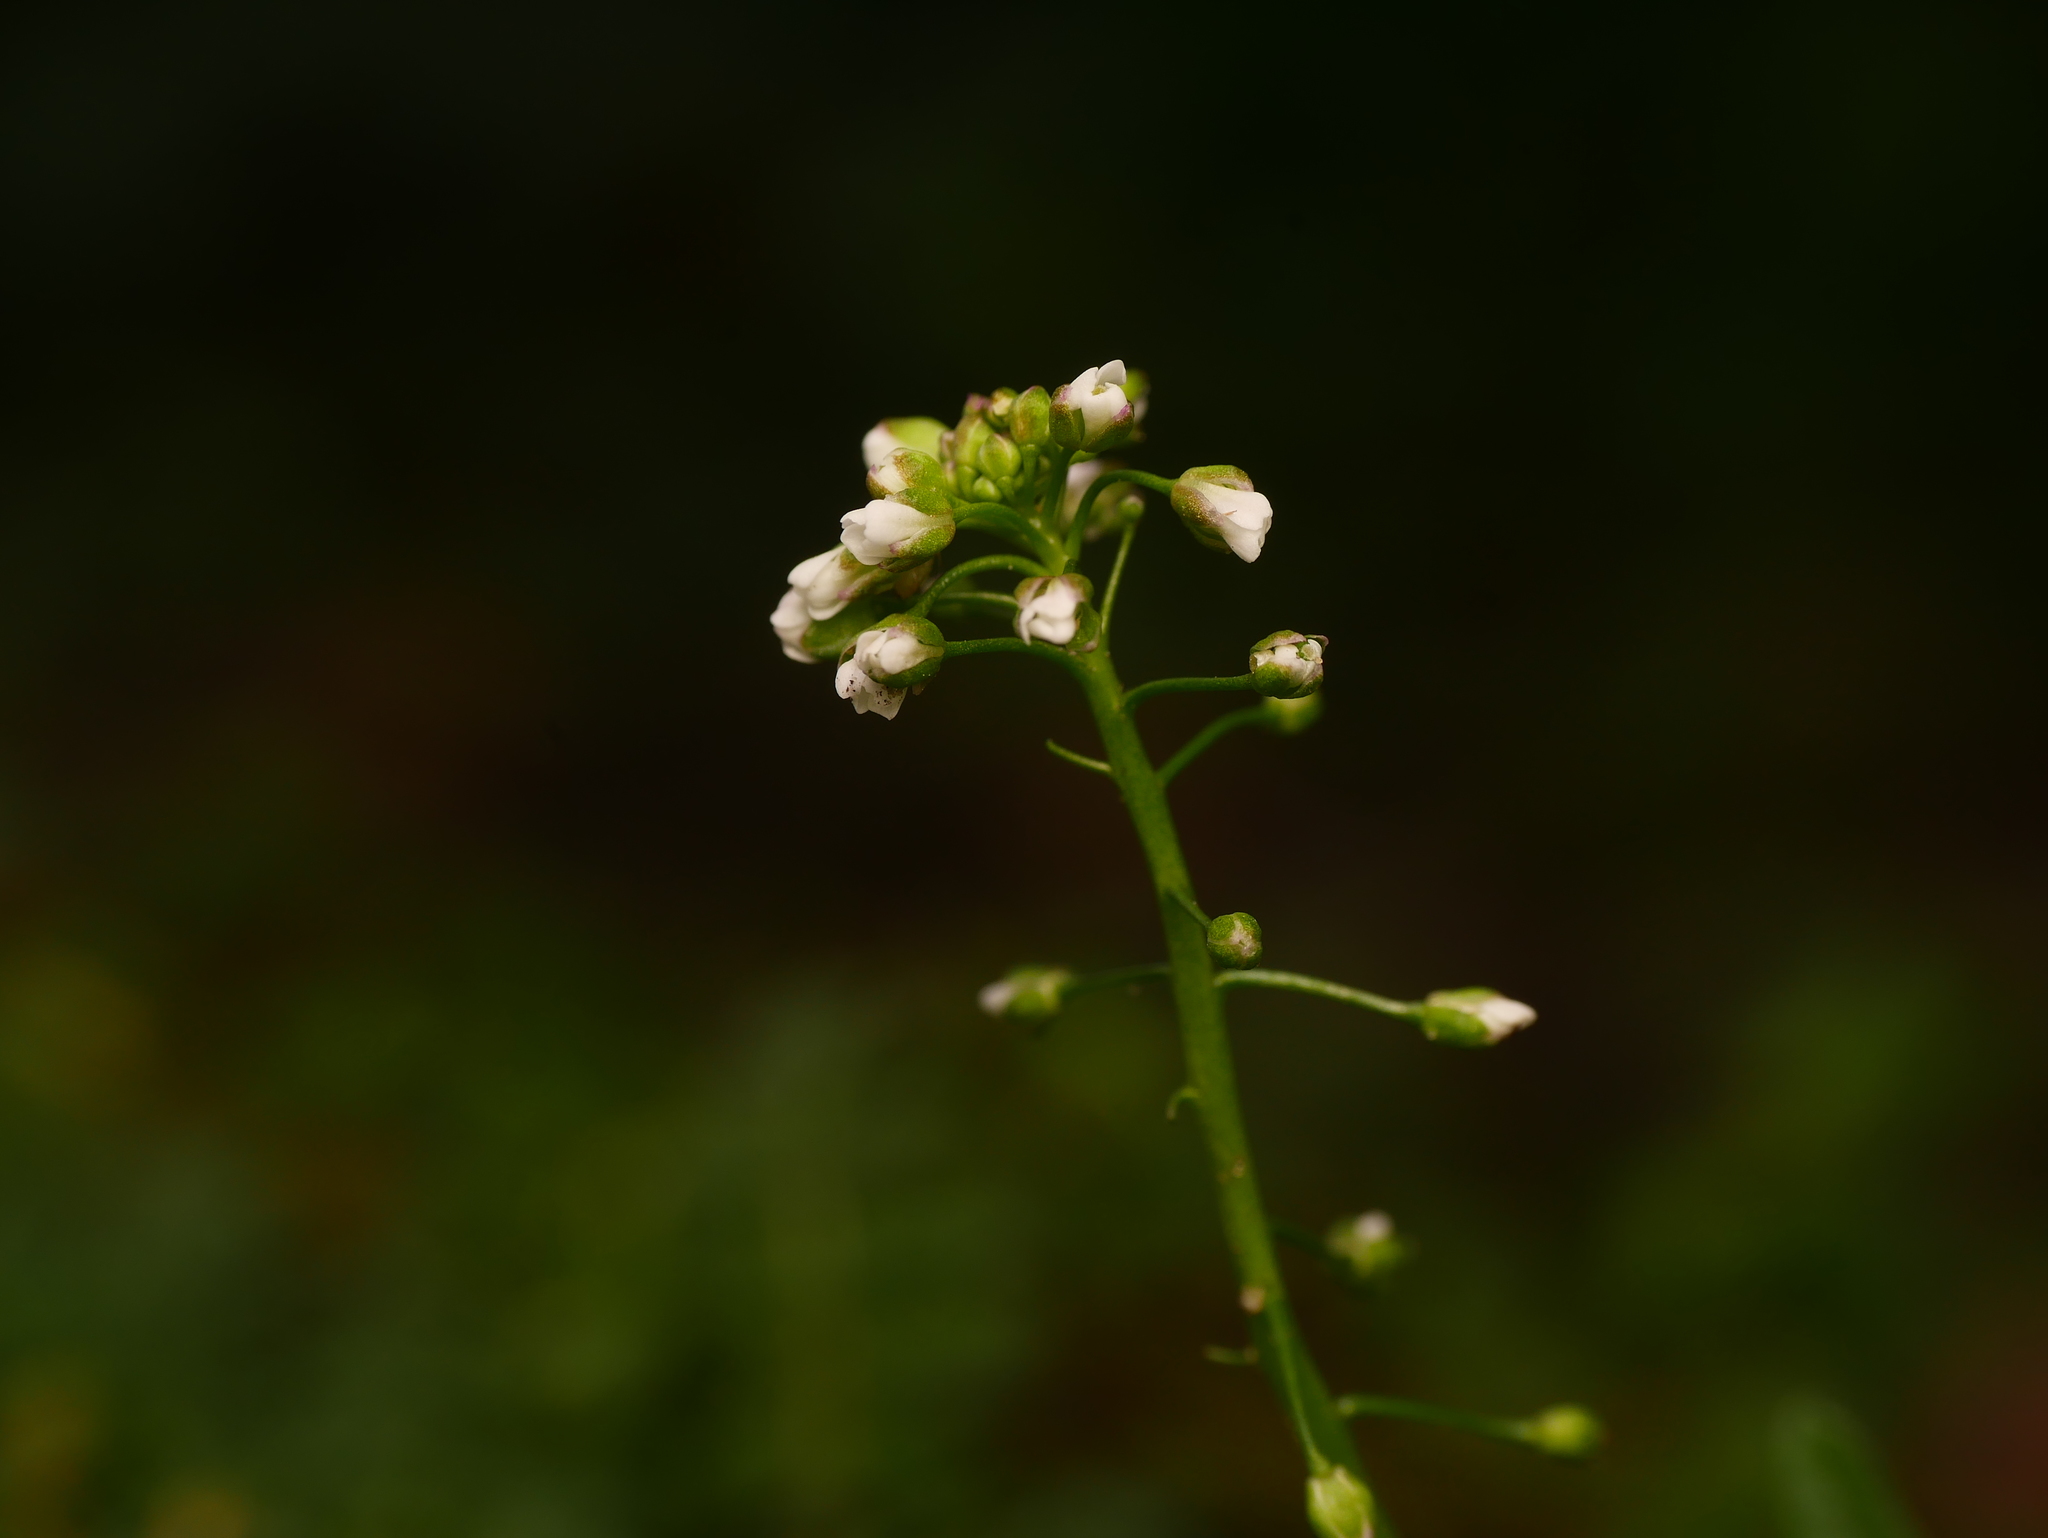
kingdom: Plantae
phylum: Tracheophyta
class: Magnoliopsida
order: Brassicales
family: Brassicaceae
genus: Capsella
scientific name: Capsella bursa-pastoris
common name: Shepherd's purse
